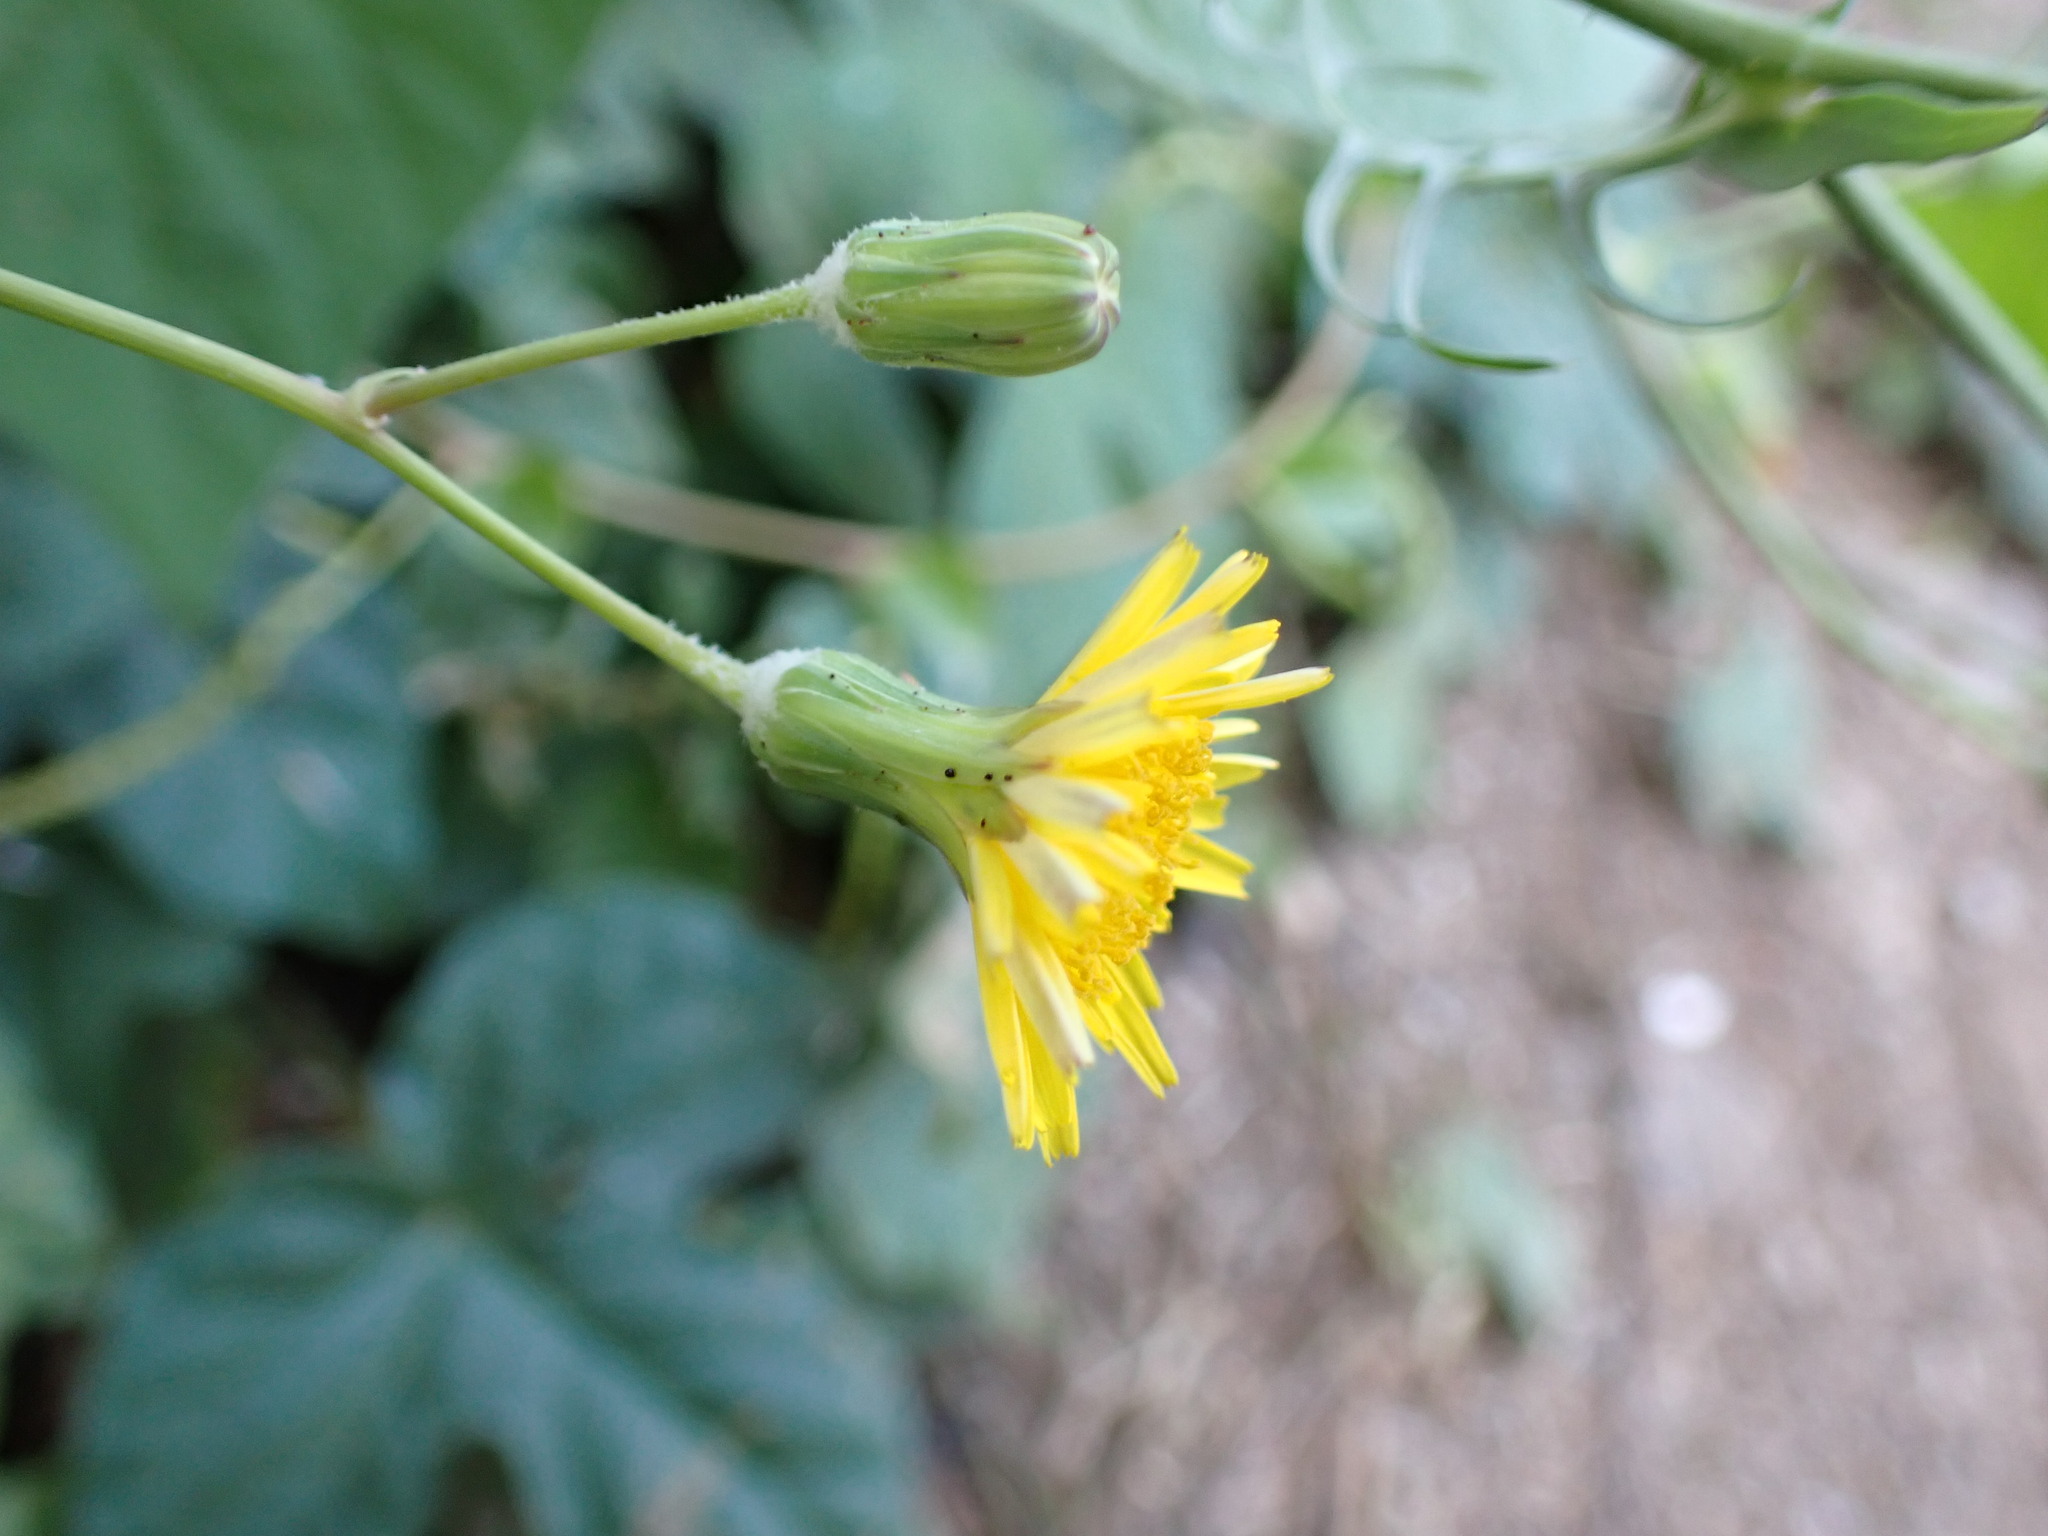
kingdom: Plantae
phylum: Tracheophyta
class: Magnoliopsida
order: Asterales
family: Asteraceae
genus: Sonchus
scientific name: Sonchus tenerrimus
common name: Clammy sowthistle
